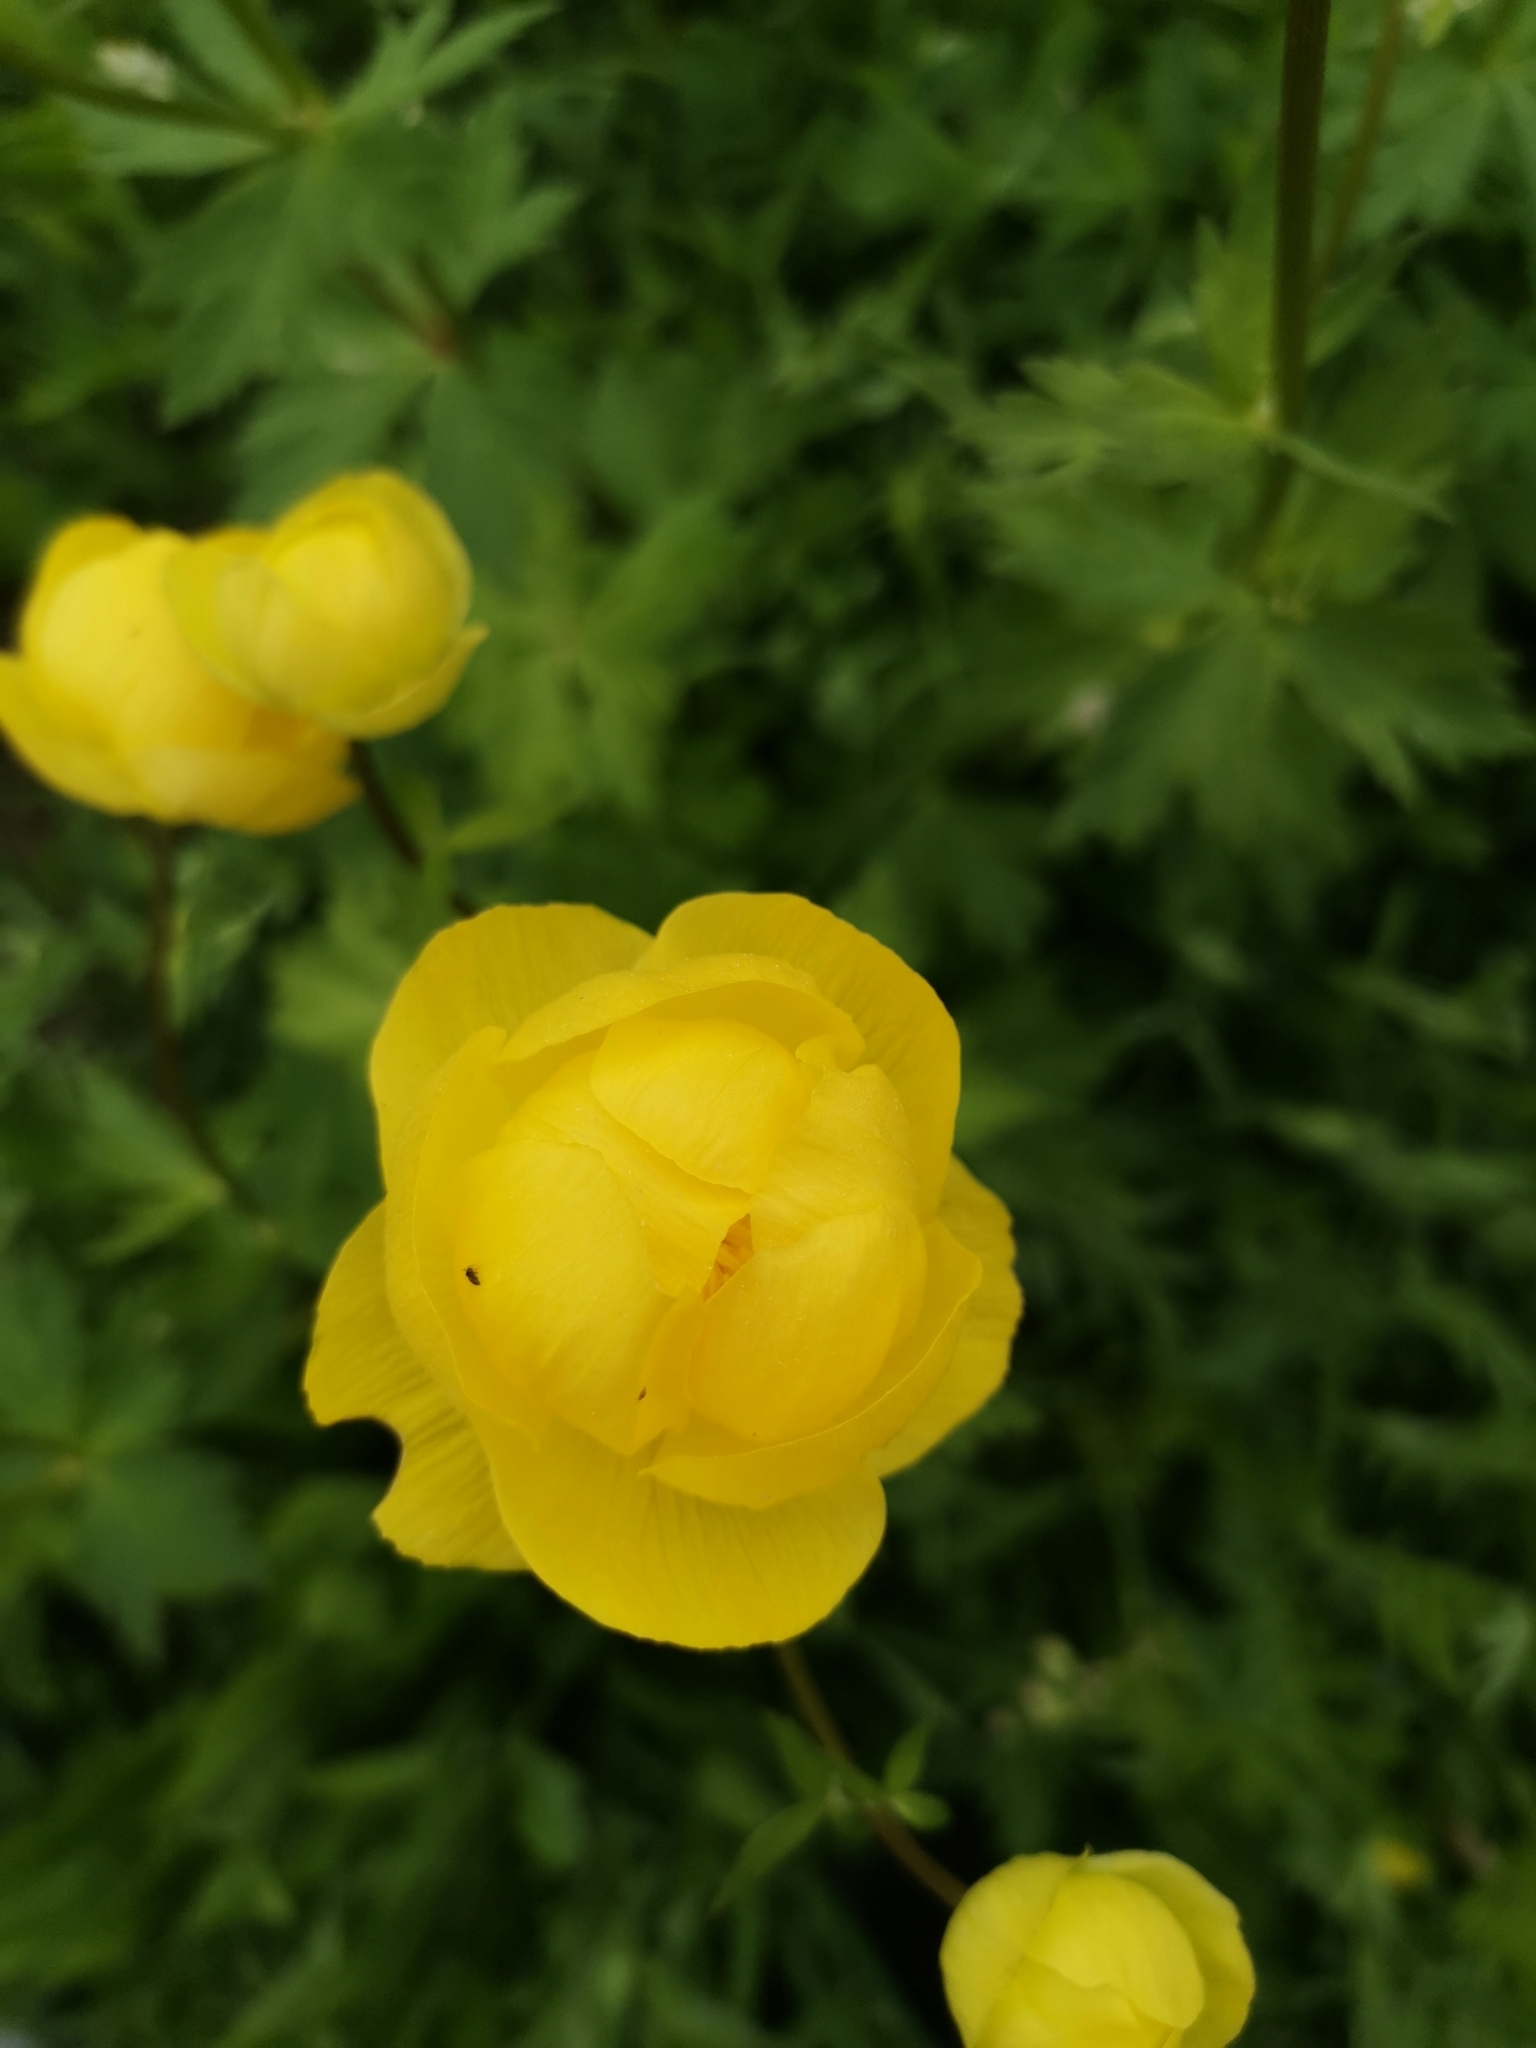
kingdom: Plantae
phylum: Tracheophyta
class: Magnoliopsida
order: Ranunculales
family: Ranunculaceae
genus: Trollius
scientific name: Trollius europaeus
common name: European globeflower
